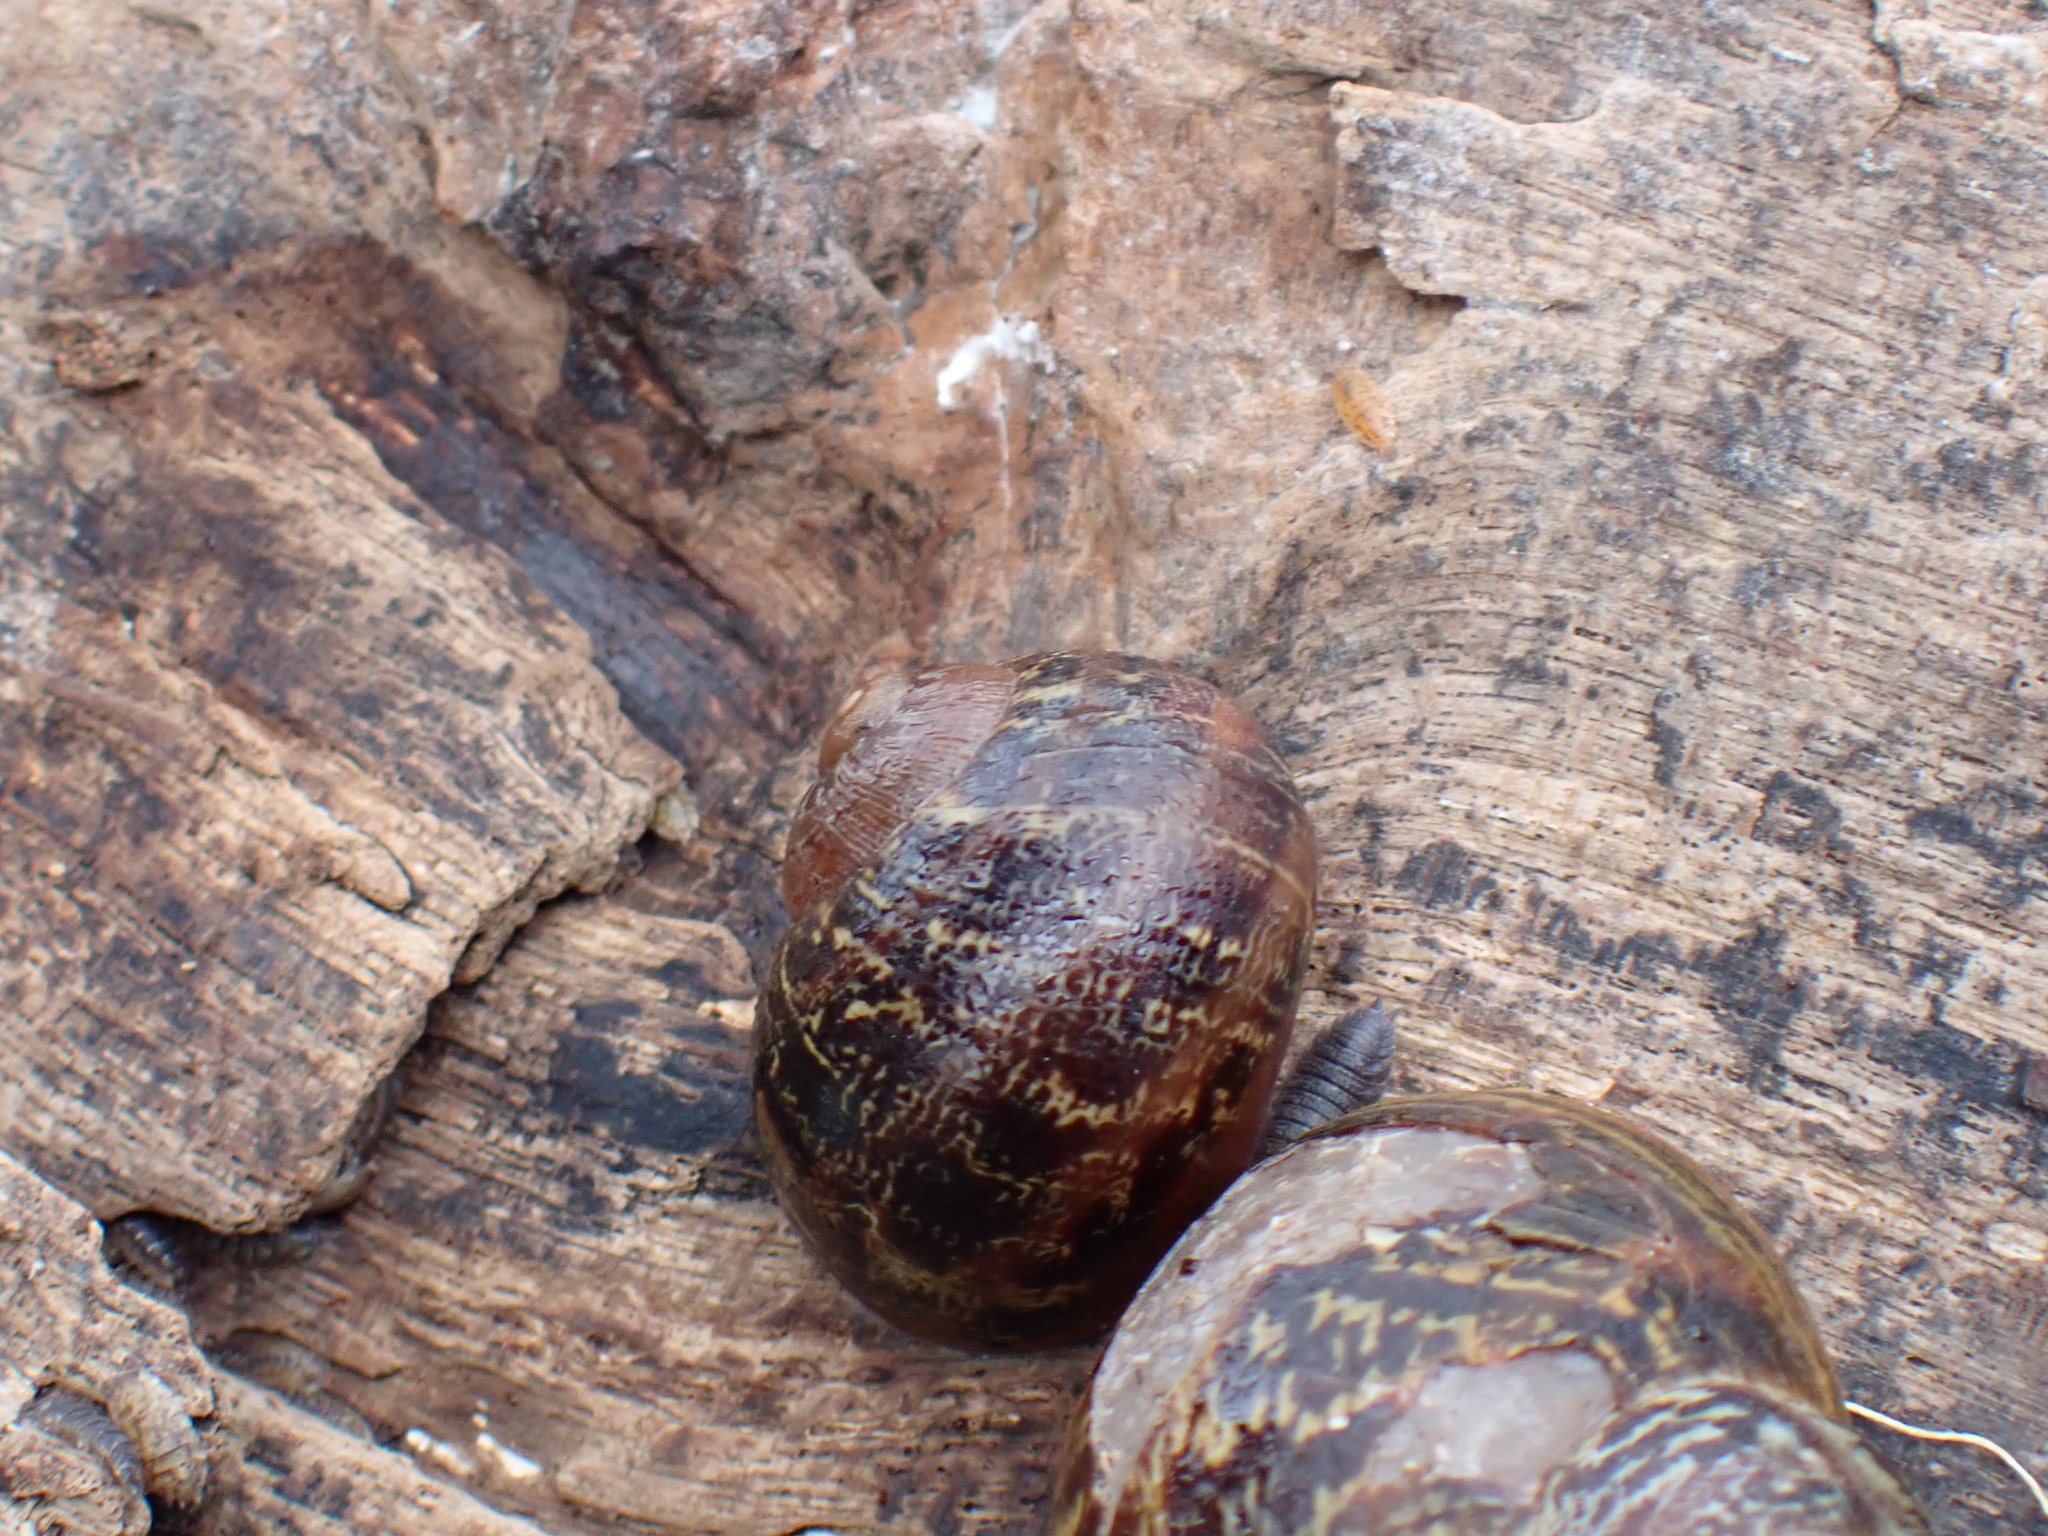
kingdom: Animalia
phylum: Mollusca
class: Gastropoda
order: Stylommatophora
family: Helicidae
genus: Cornu
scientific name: Cornu aspersum
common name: Brown garden snail
